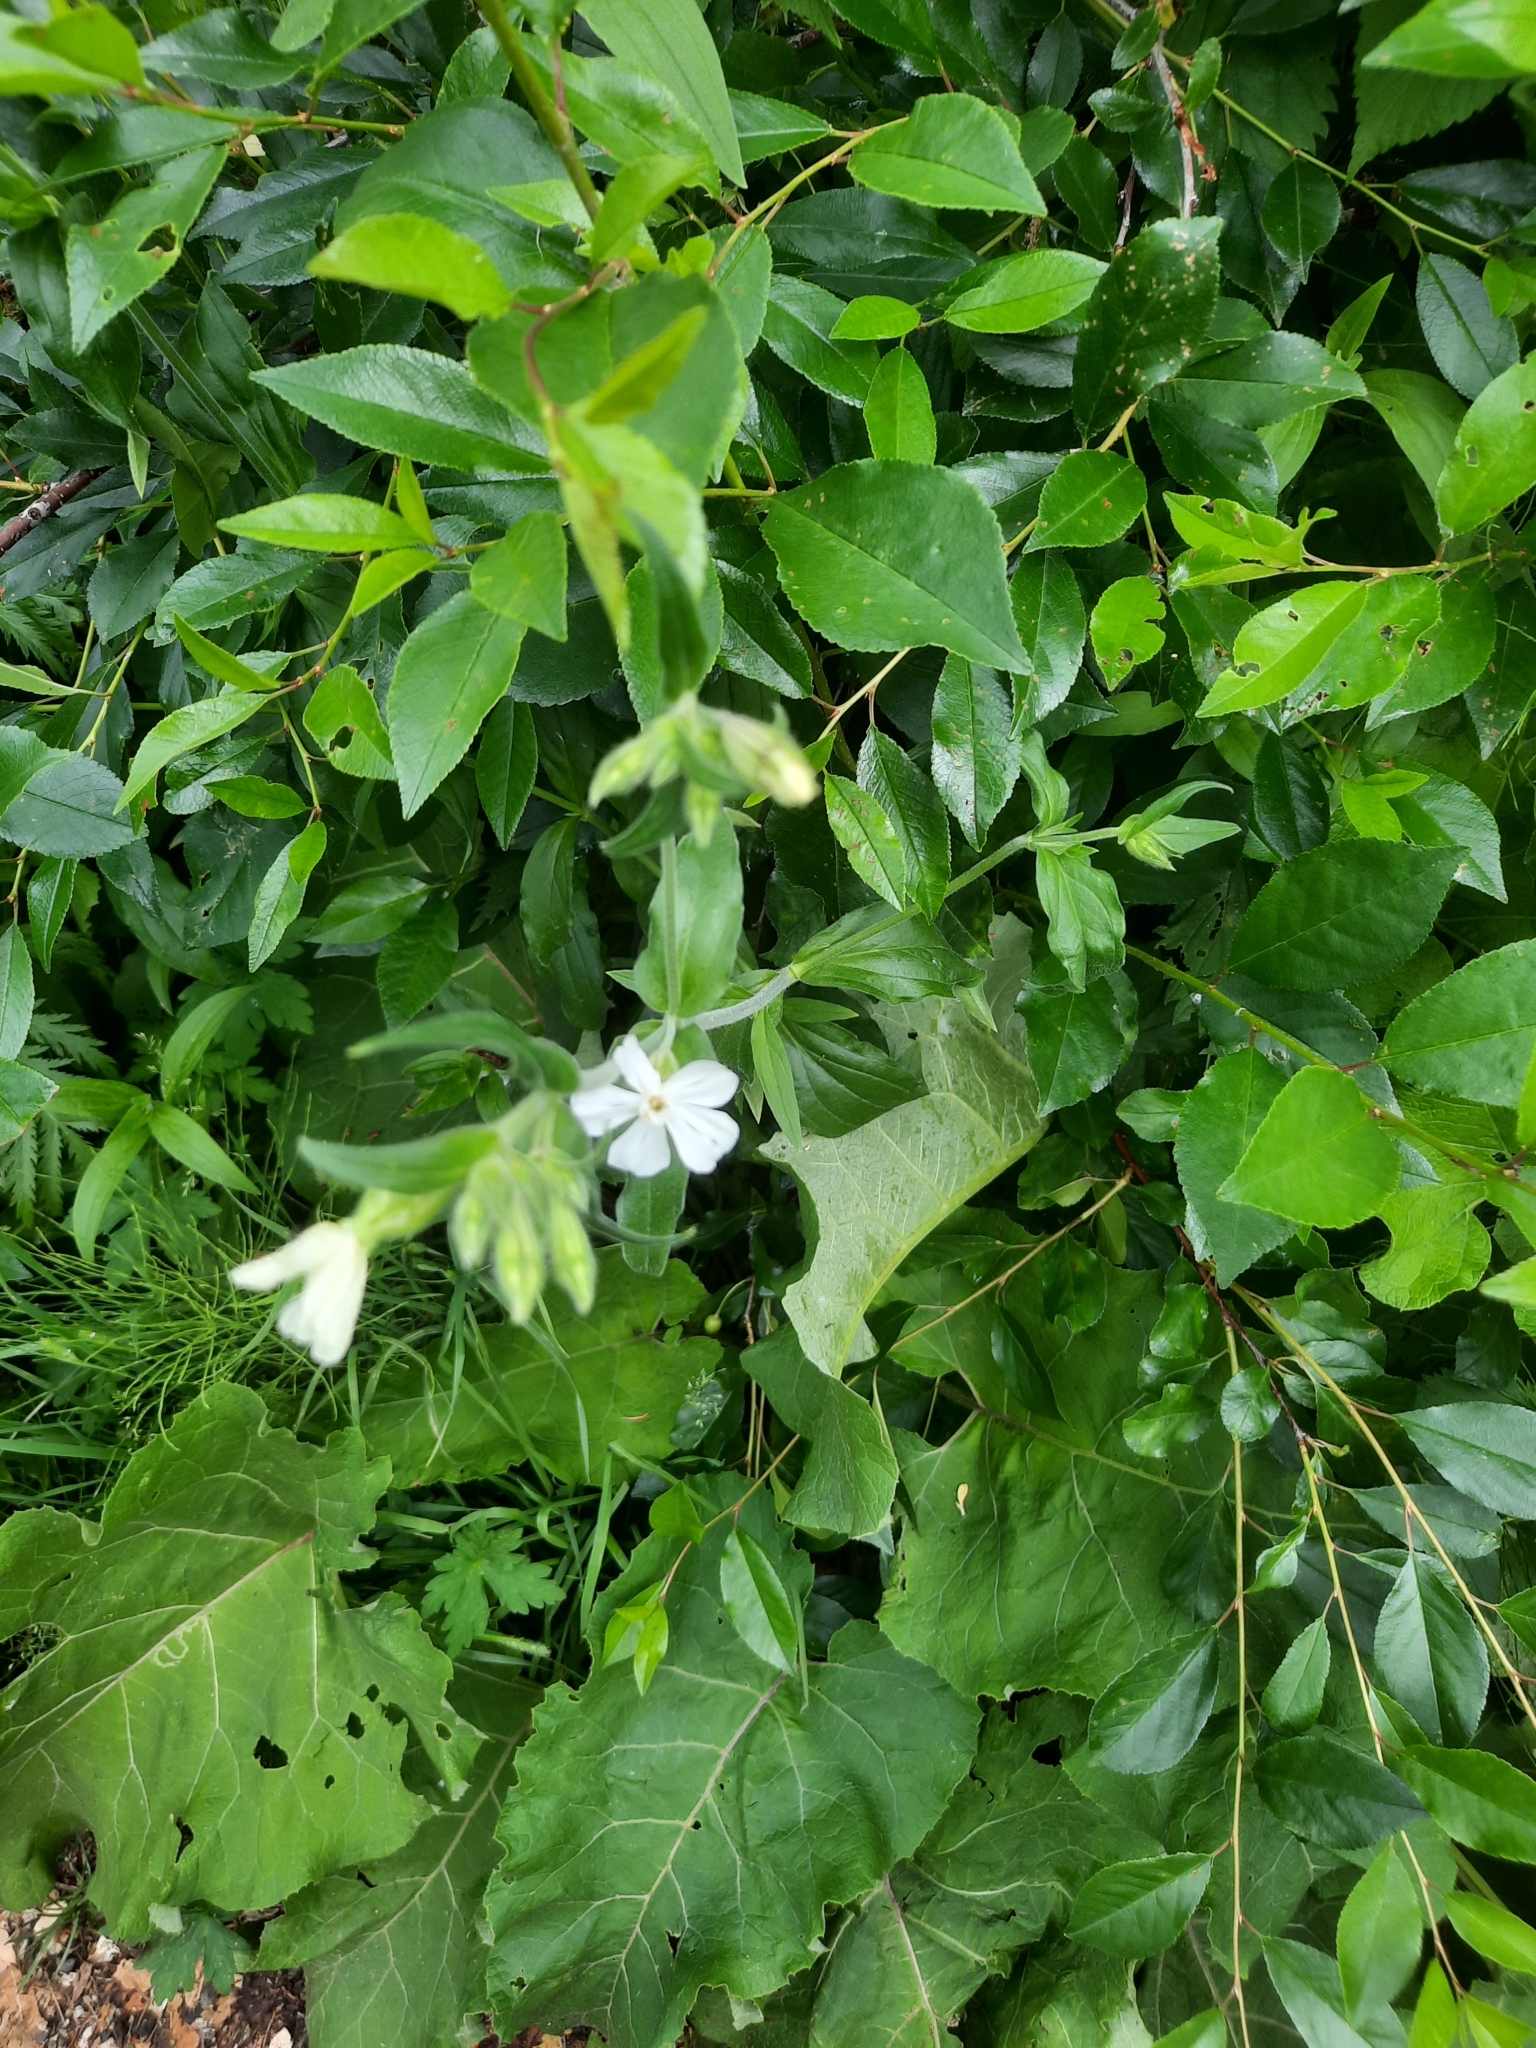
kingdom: Plantae
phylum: Tracheophyta
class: Magnoliopsida
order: Caryophyllales
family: Caryophyllaceae
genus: Silene
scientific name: Silene latifolia
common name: White campion
